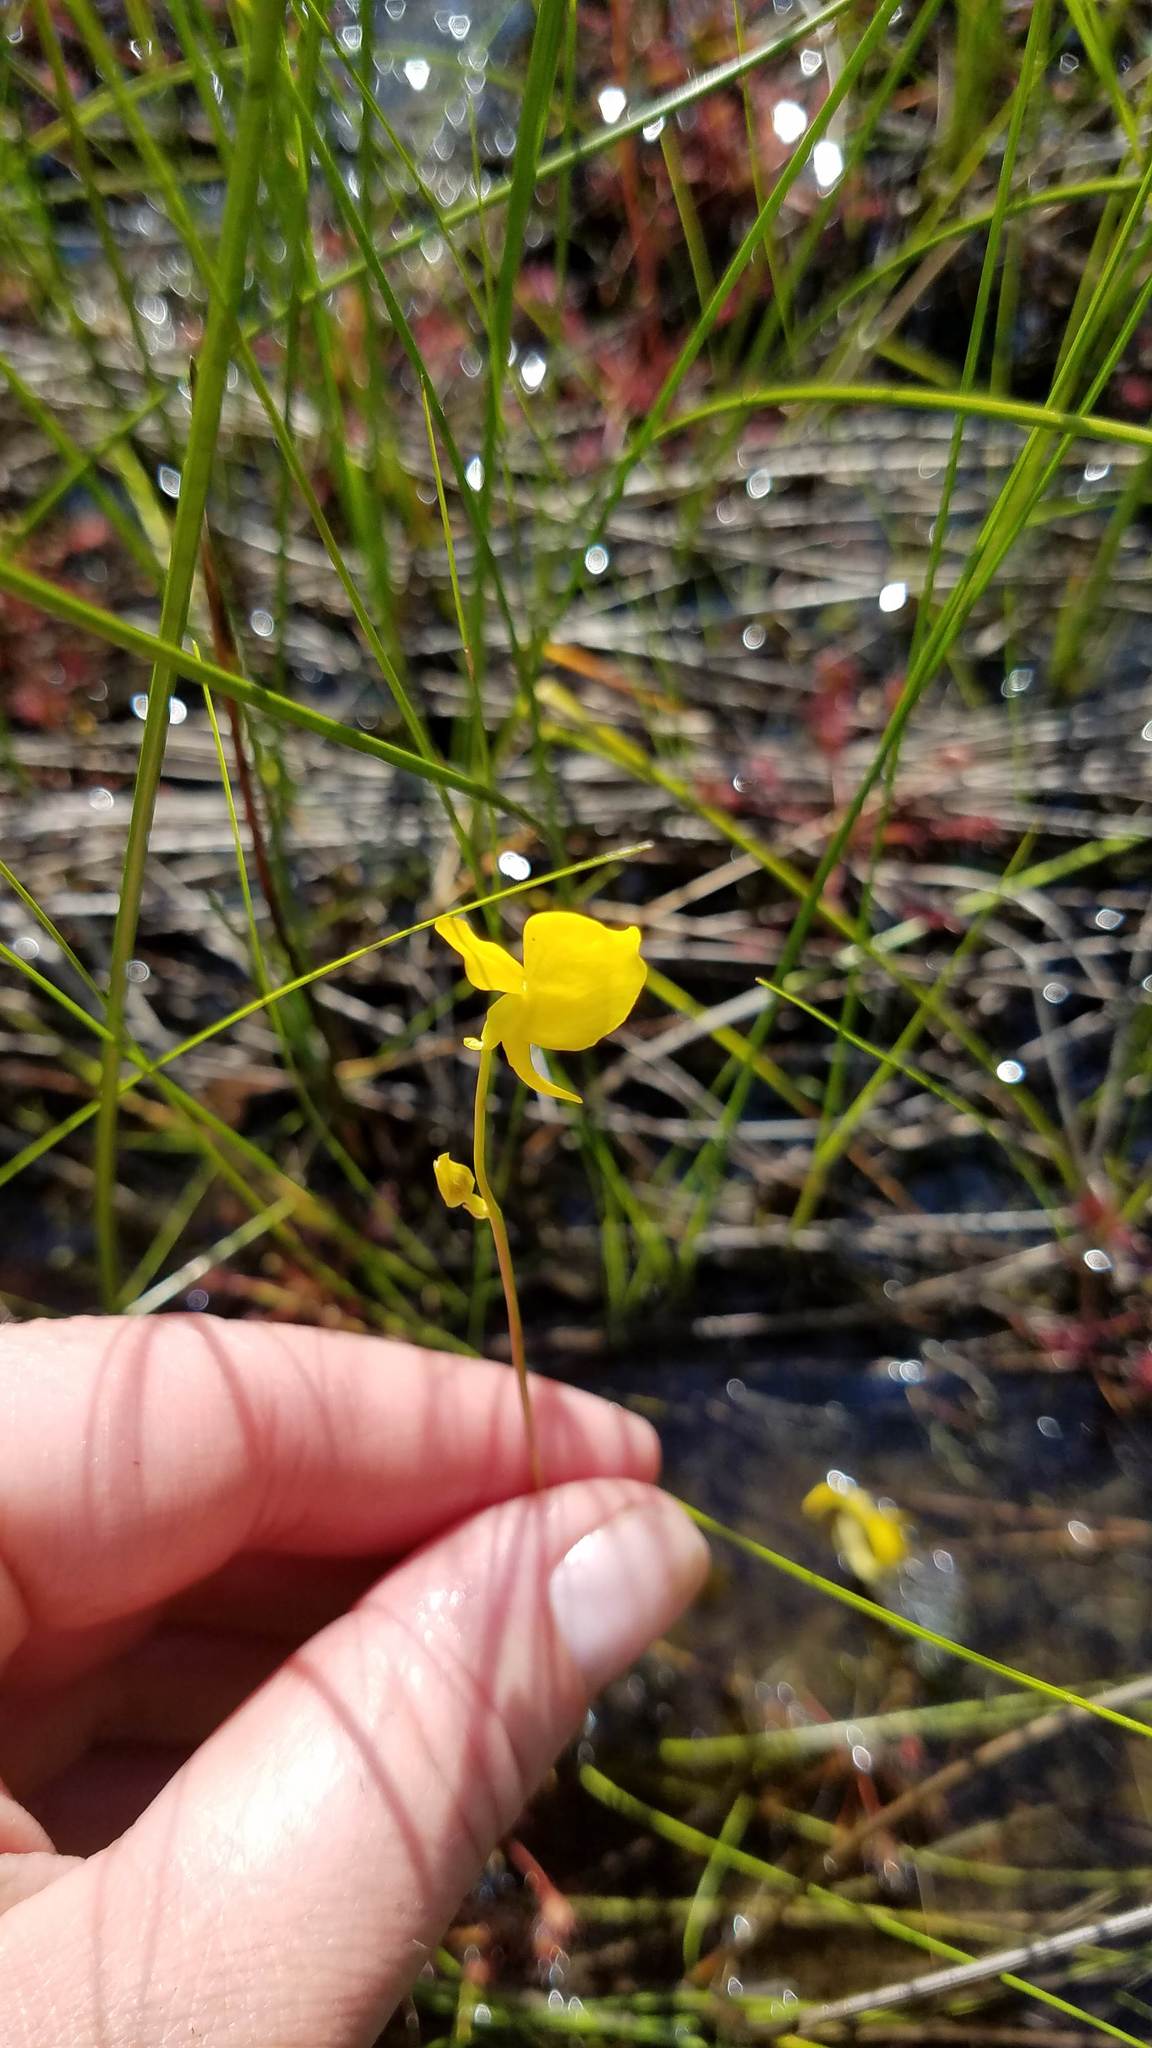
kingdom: Plantae
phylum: Tracheophyta
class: Magnoliopsida
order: Lamiales
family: Lentibulariaceae
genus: Utricularia
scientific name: Utricularia cornuta
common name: Horned bladderwort
